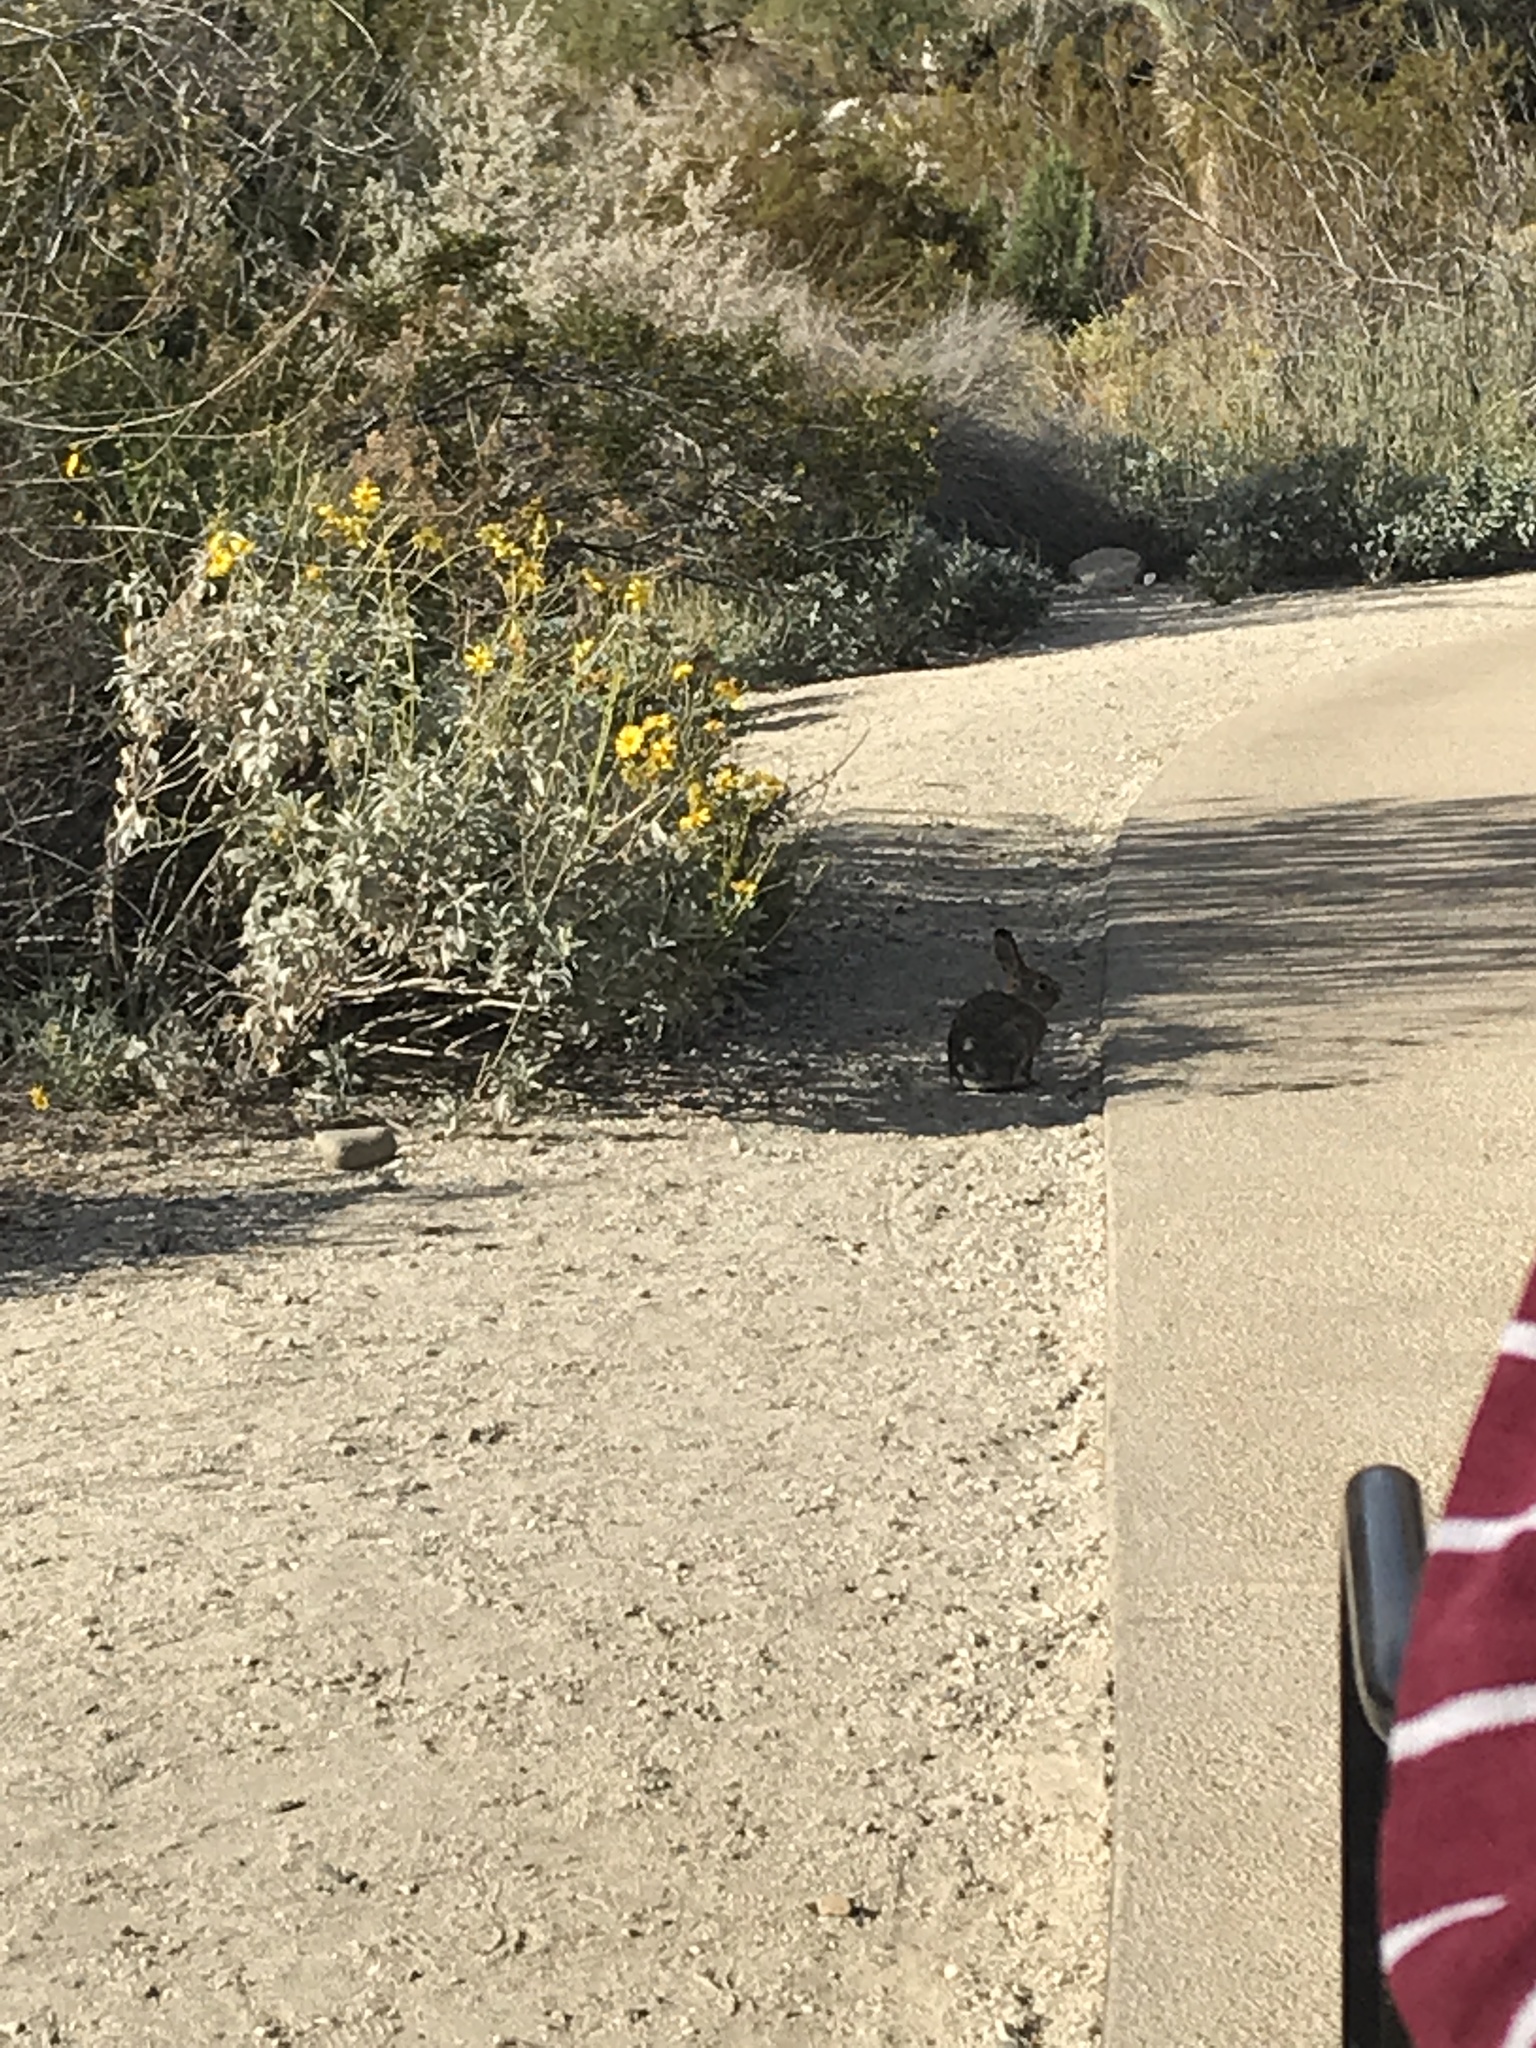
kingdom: Animalia
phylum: Chordata
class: Mammalia
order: Lagomorpha
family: Leporidae
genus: Sylvilagus
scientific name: Sylvilagus audubonii
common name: Desert cottontail
